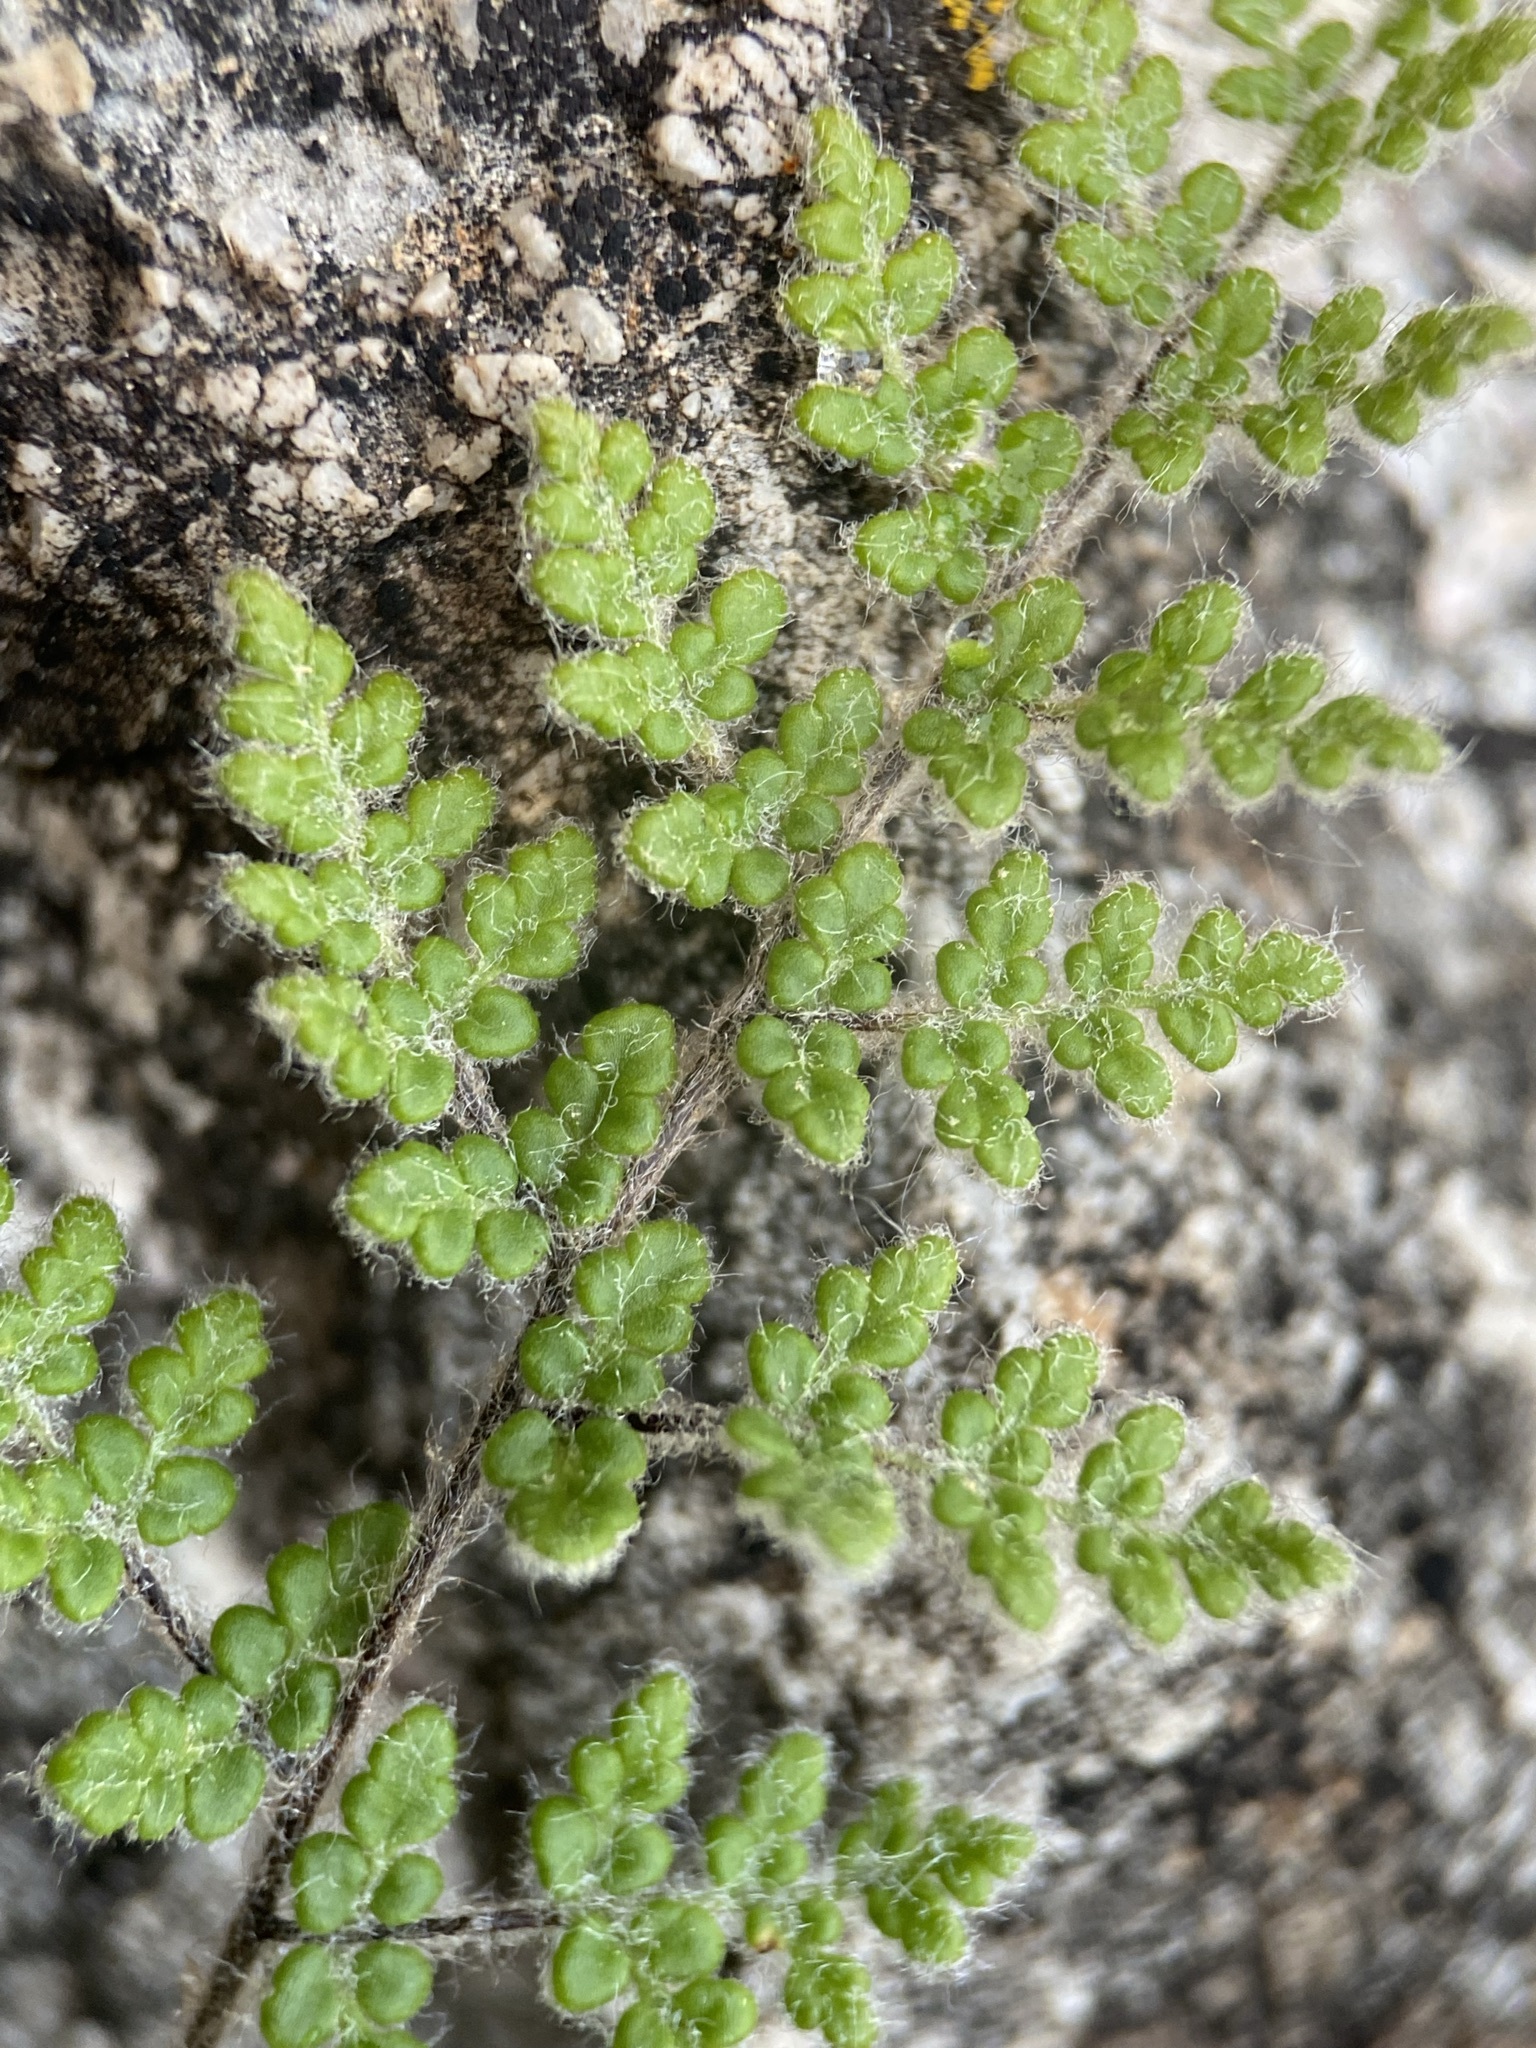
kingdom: Plantae
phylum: Tracheophyta
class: Polypodiopsida
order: Polypodiales
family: Pteridaceae
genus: Myriopteris
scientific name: Myriopteris gracilis
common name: Fee's lip fern
